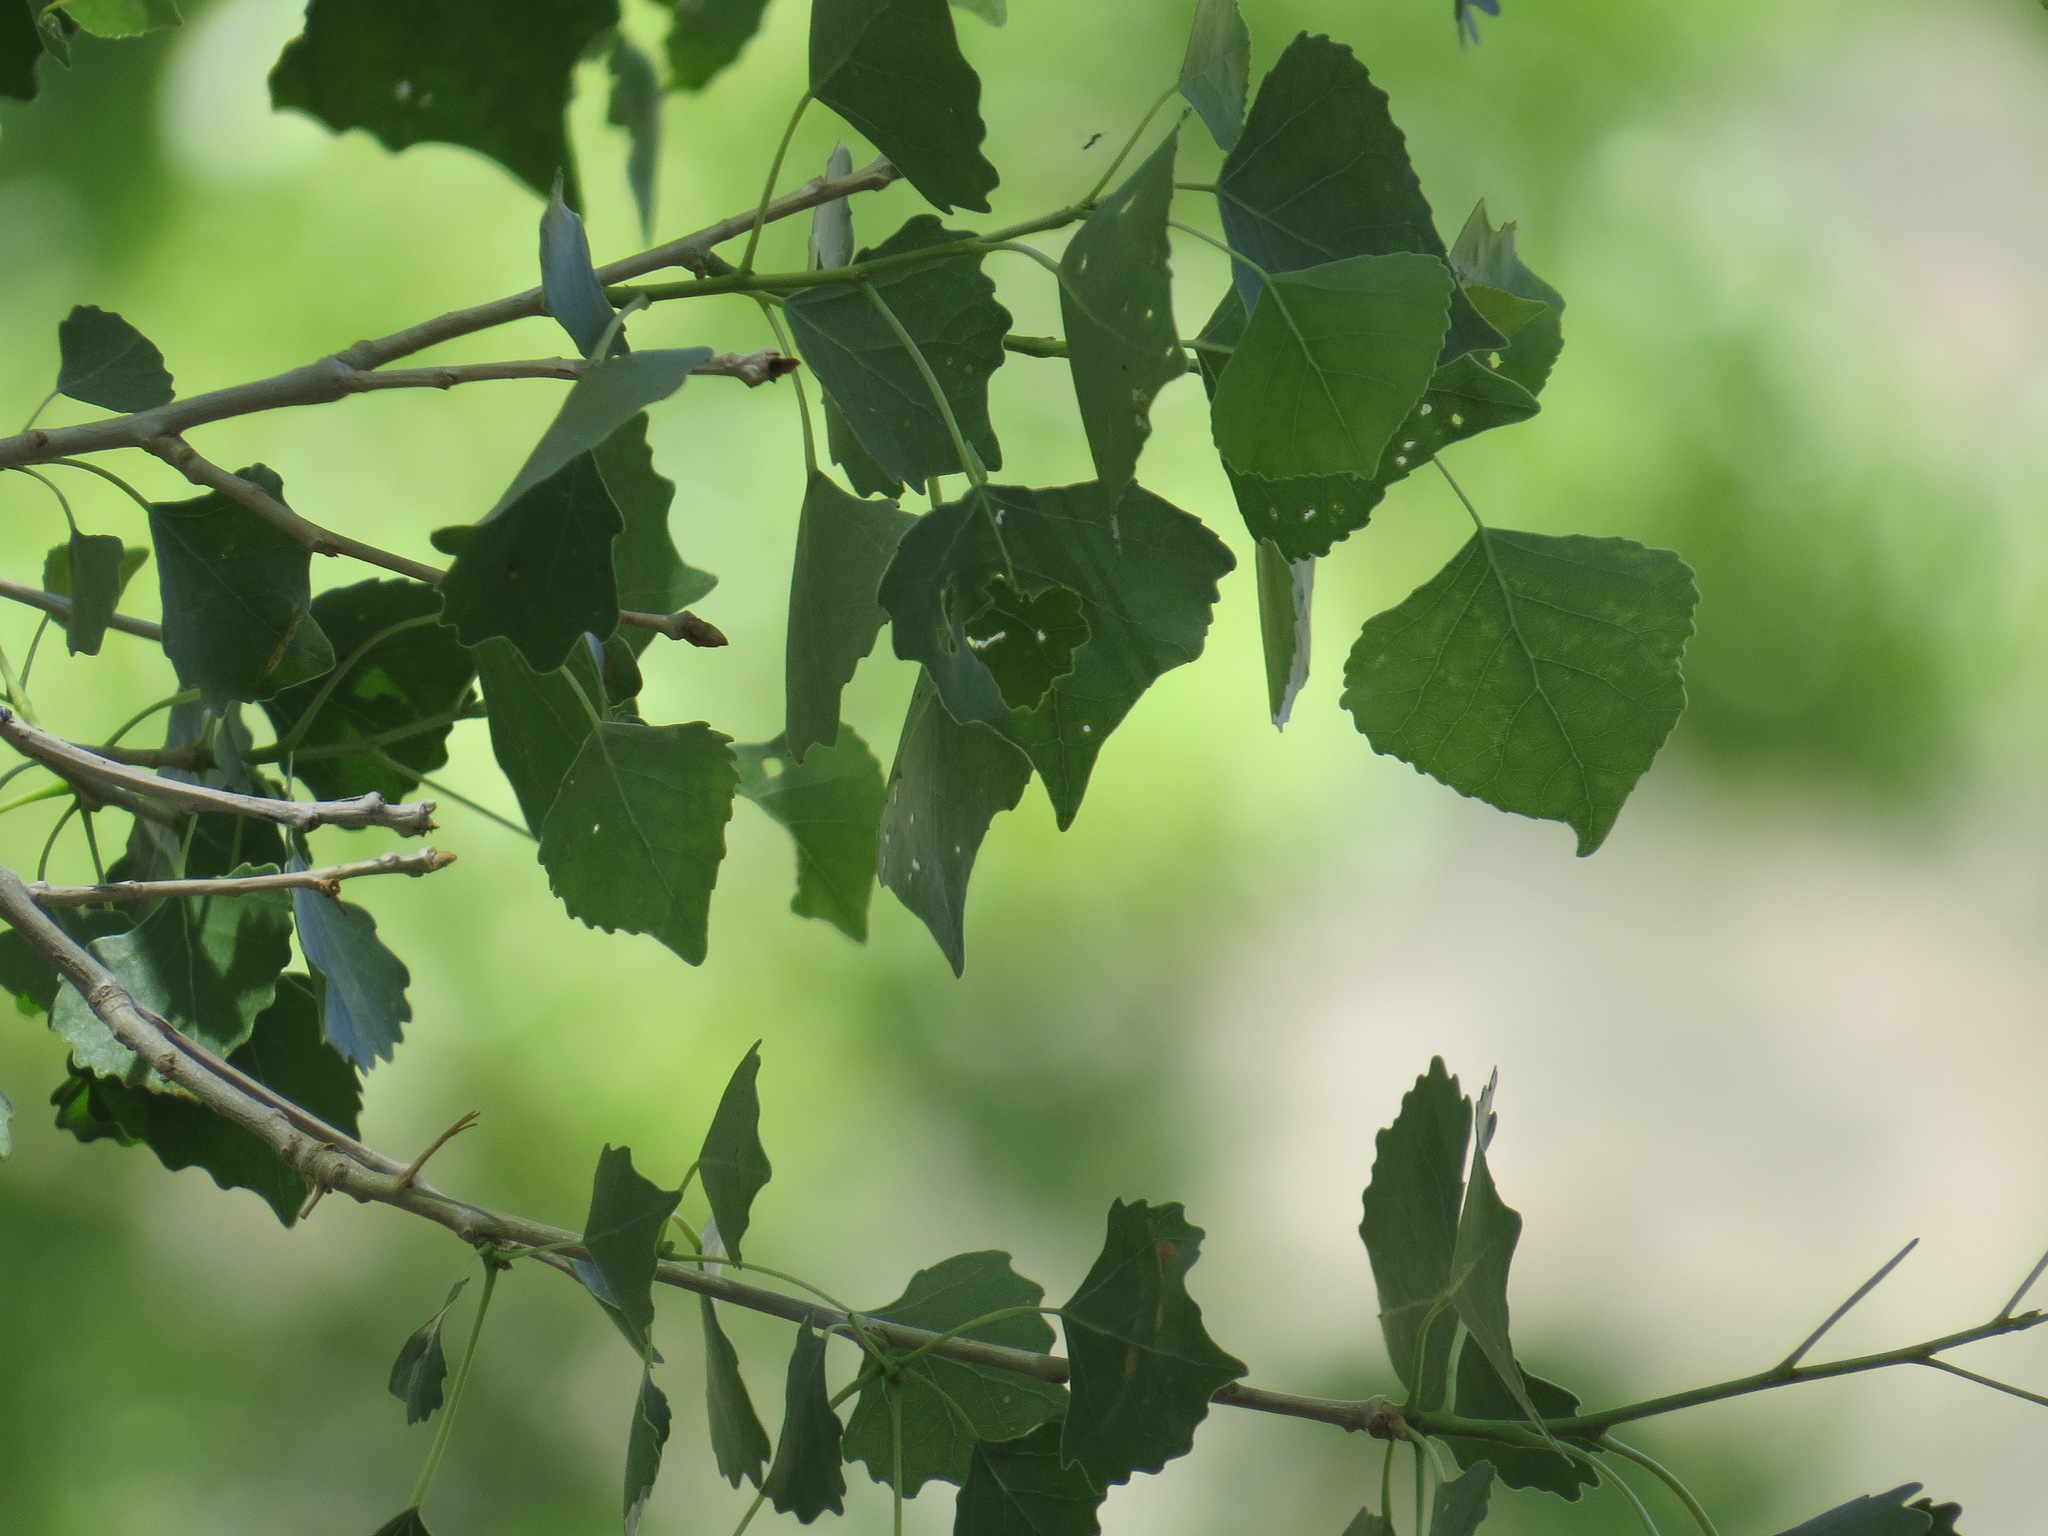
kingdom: Animalia
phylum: Arthropoda
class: Arachnida
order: Trombidiformes
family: Eriophyidae
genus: Aceria
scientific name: Aceria
